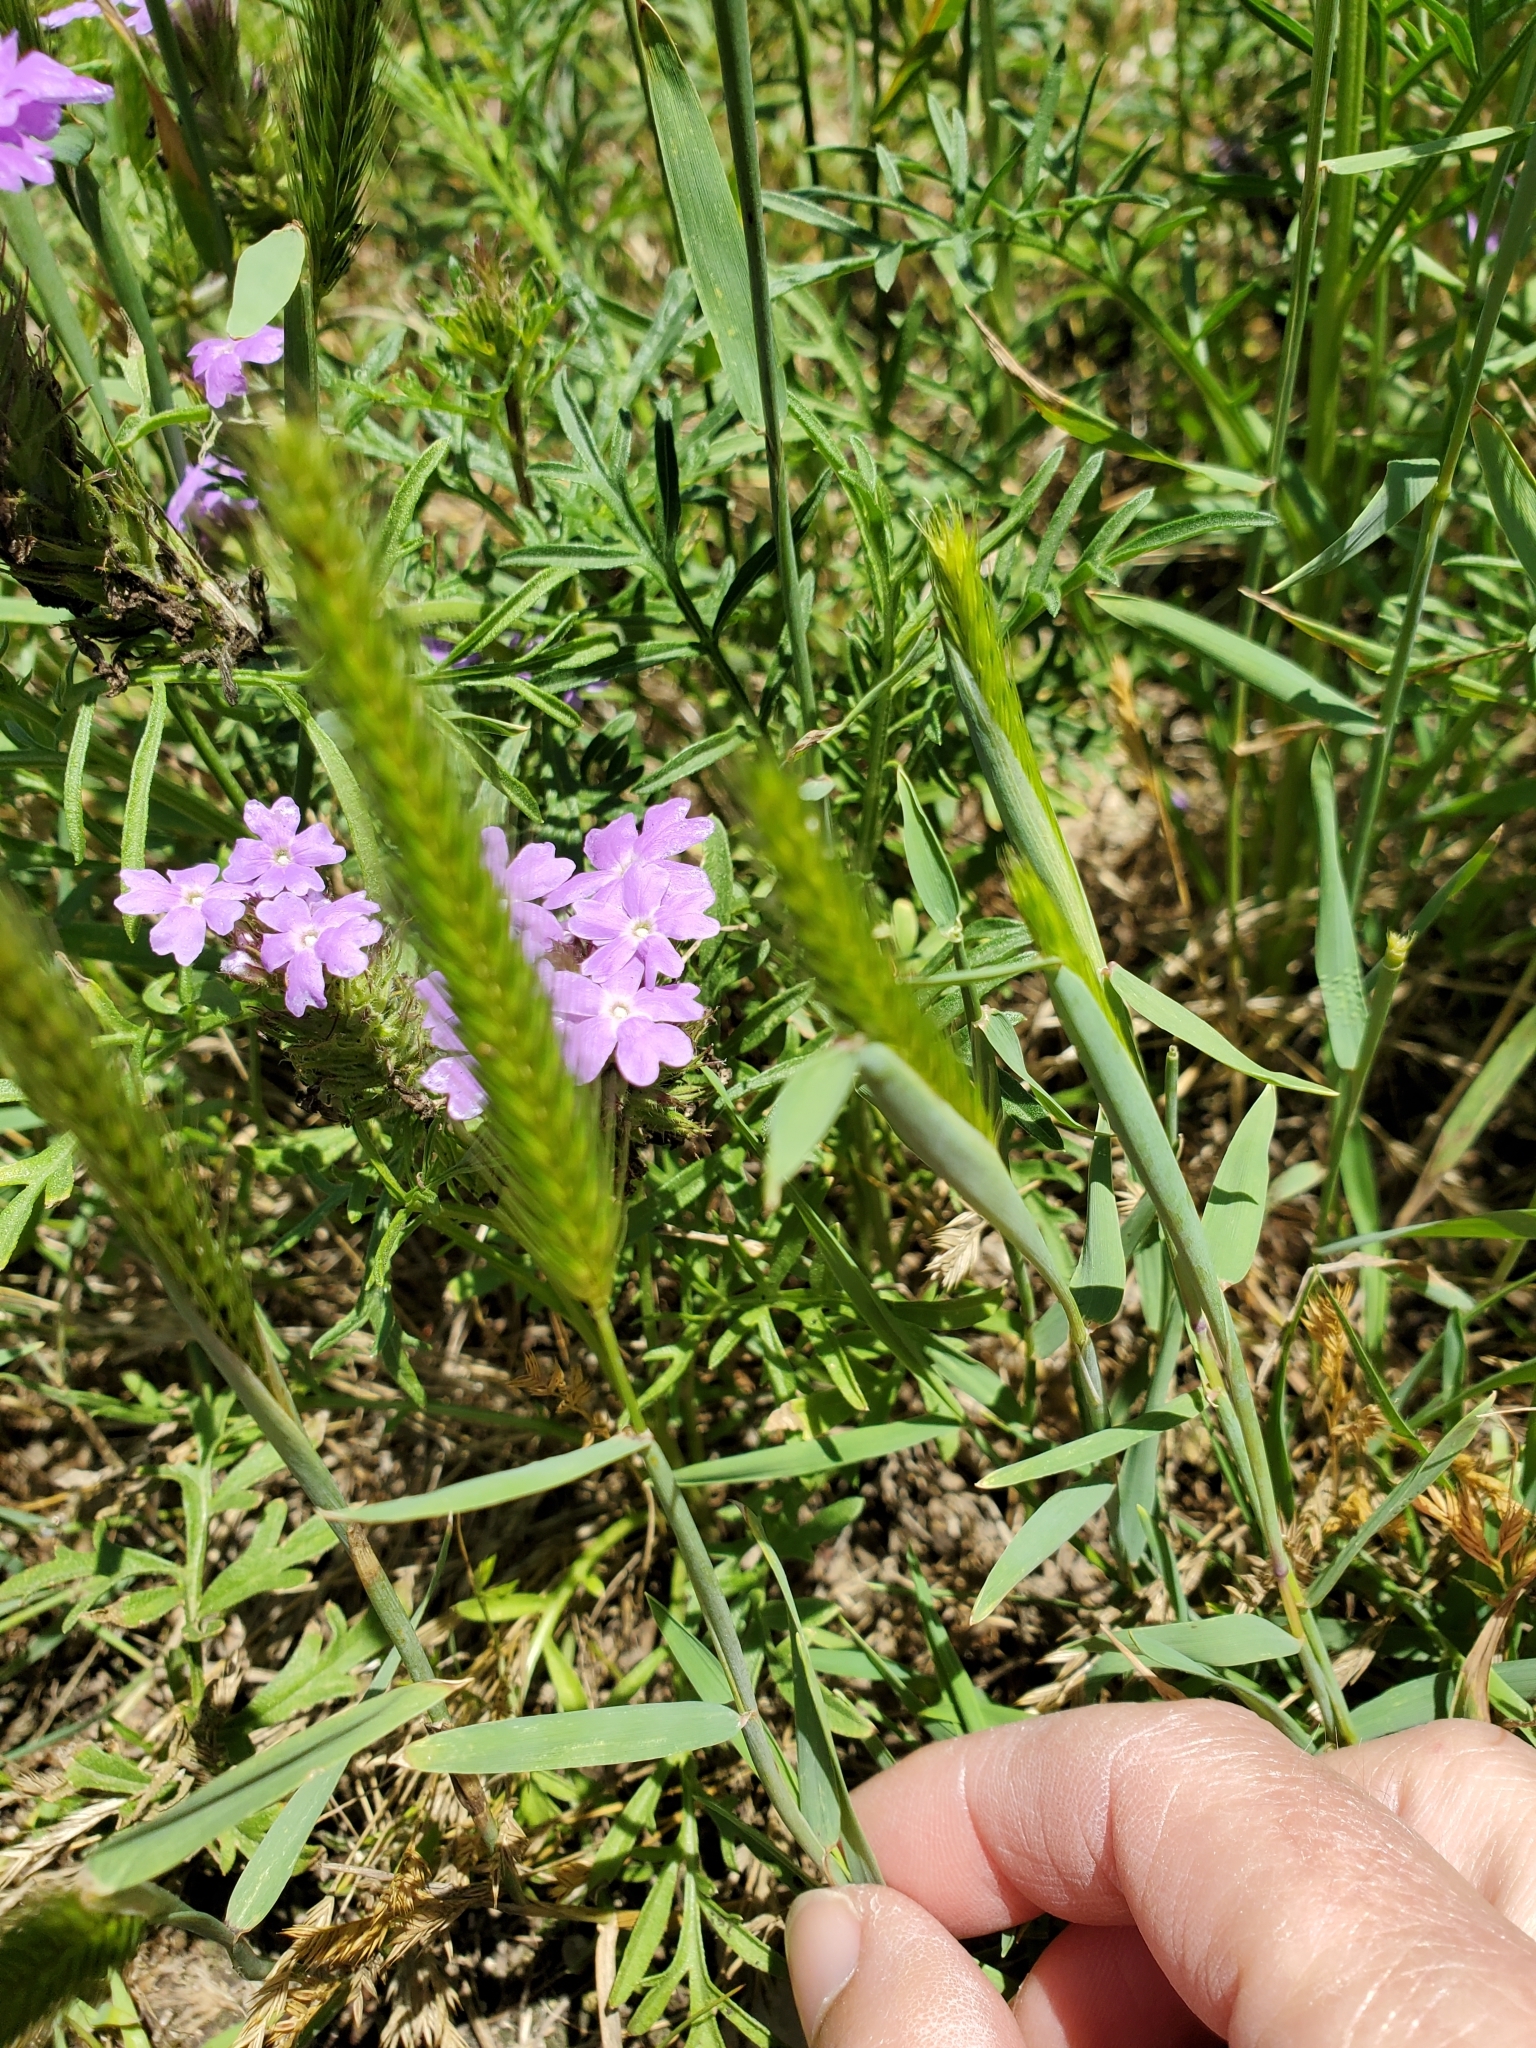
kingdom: Plantae
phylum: Tracheophyta
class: Liliopsida
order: Poales
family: Poaceae
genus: Hordeum
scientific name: Hordeum pusillum
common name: Little barley
